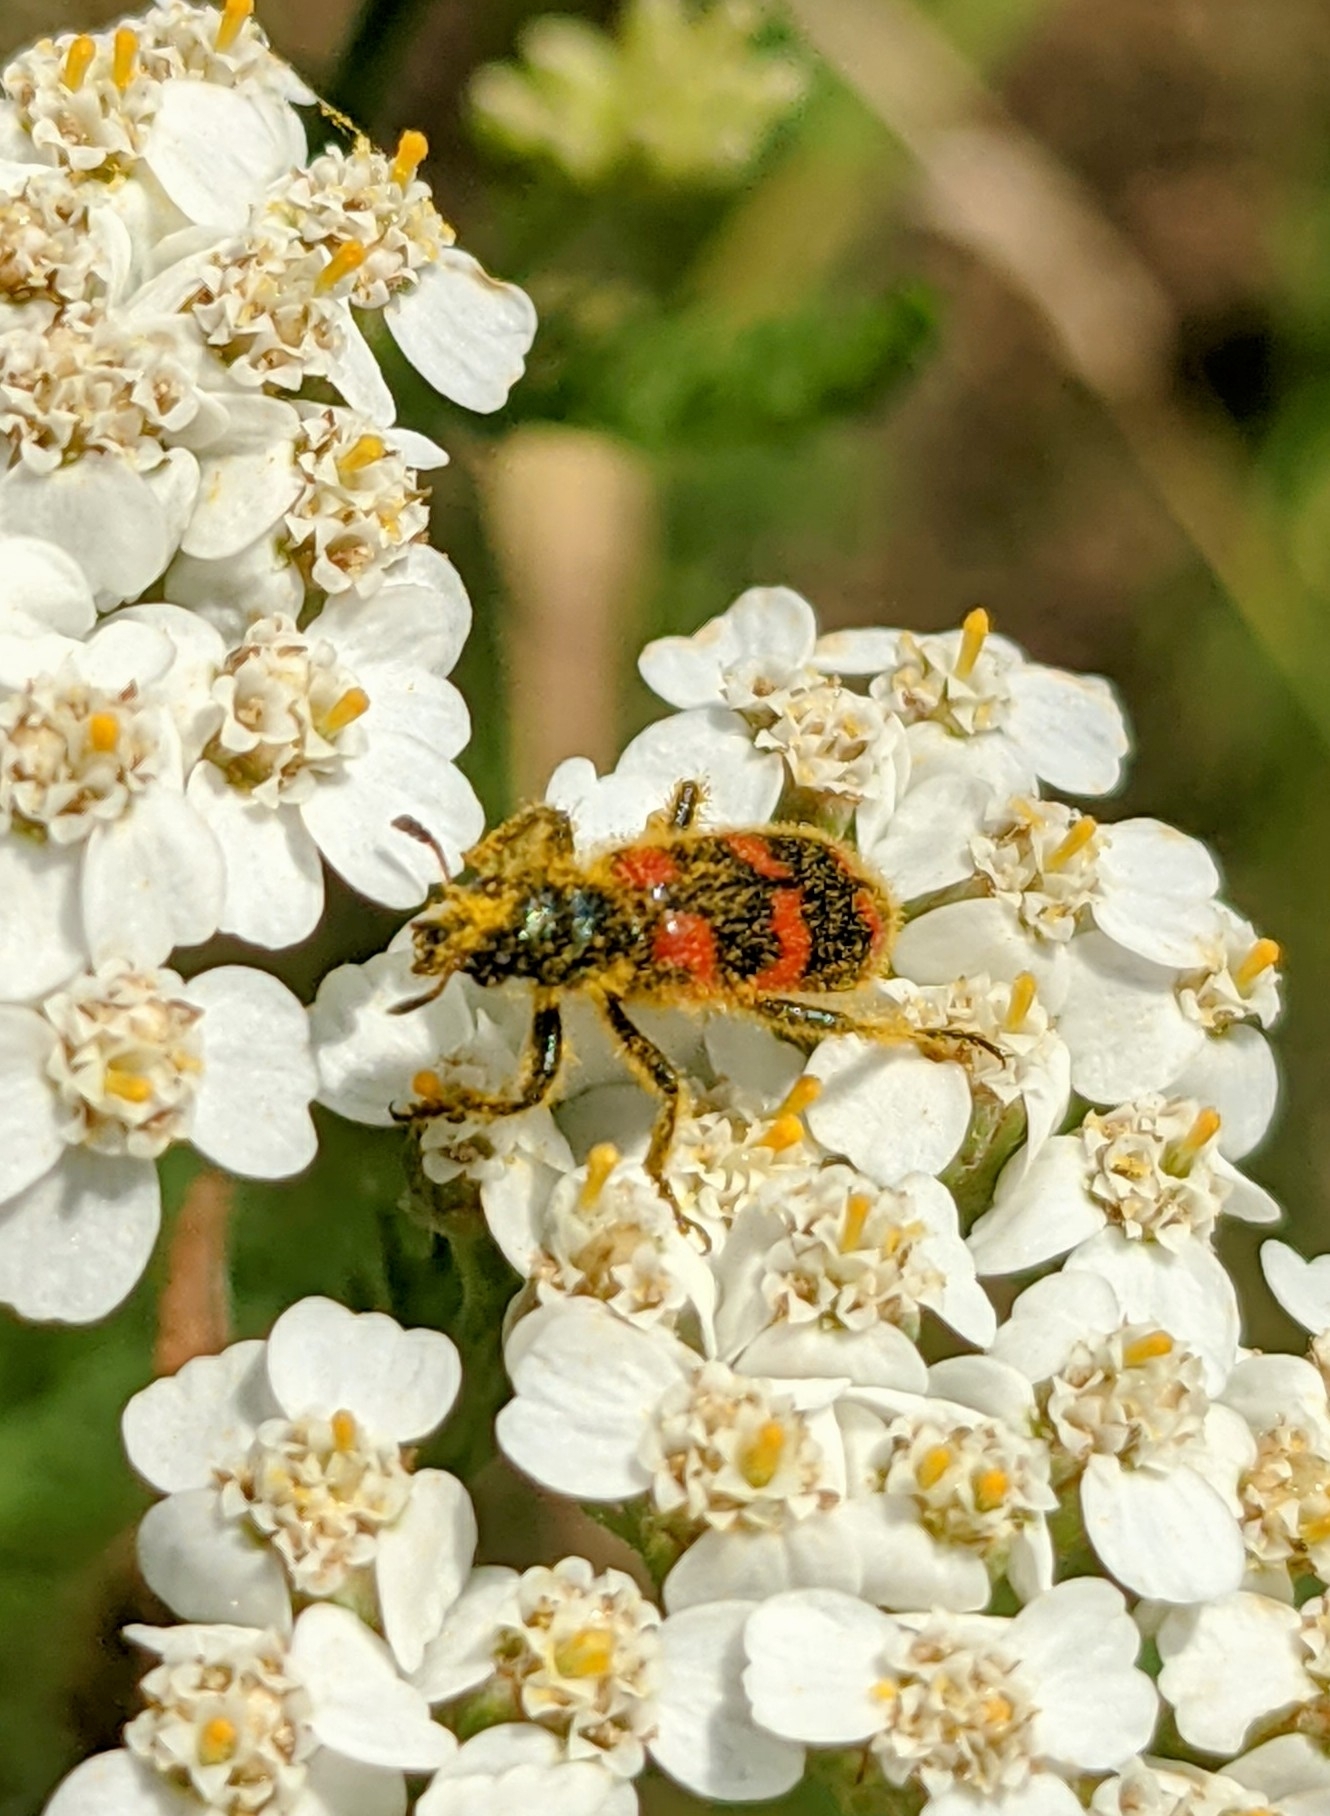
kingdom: Animalia
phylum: Arthropoda
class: Insecta
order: Coleoptera
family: Cleridae
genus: Trichodes
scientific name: Trichodes nutalli
